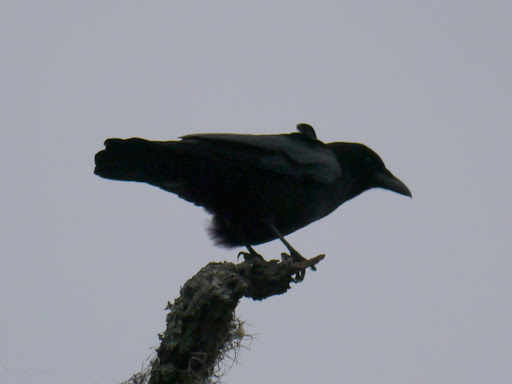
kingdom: Animalia
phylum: Chordata
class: Aves
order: Passeriformes
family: Corvidae
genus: Corvus
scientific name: Corvus
